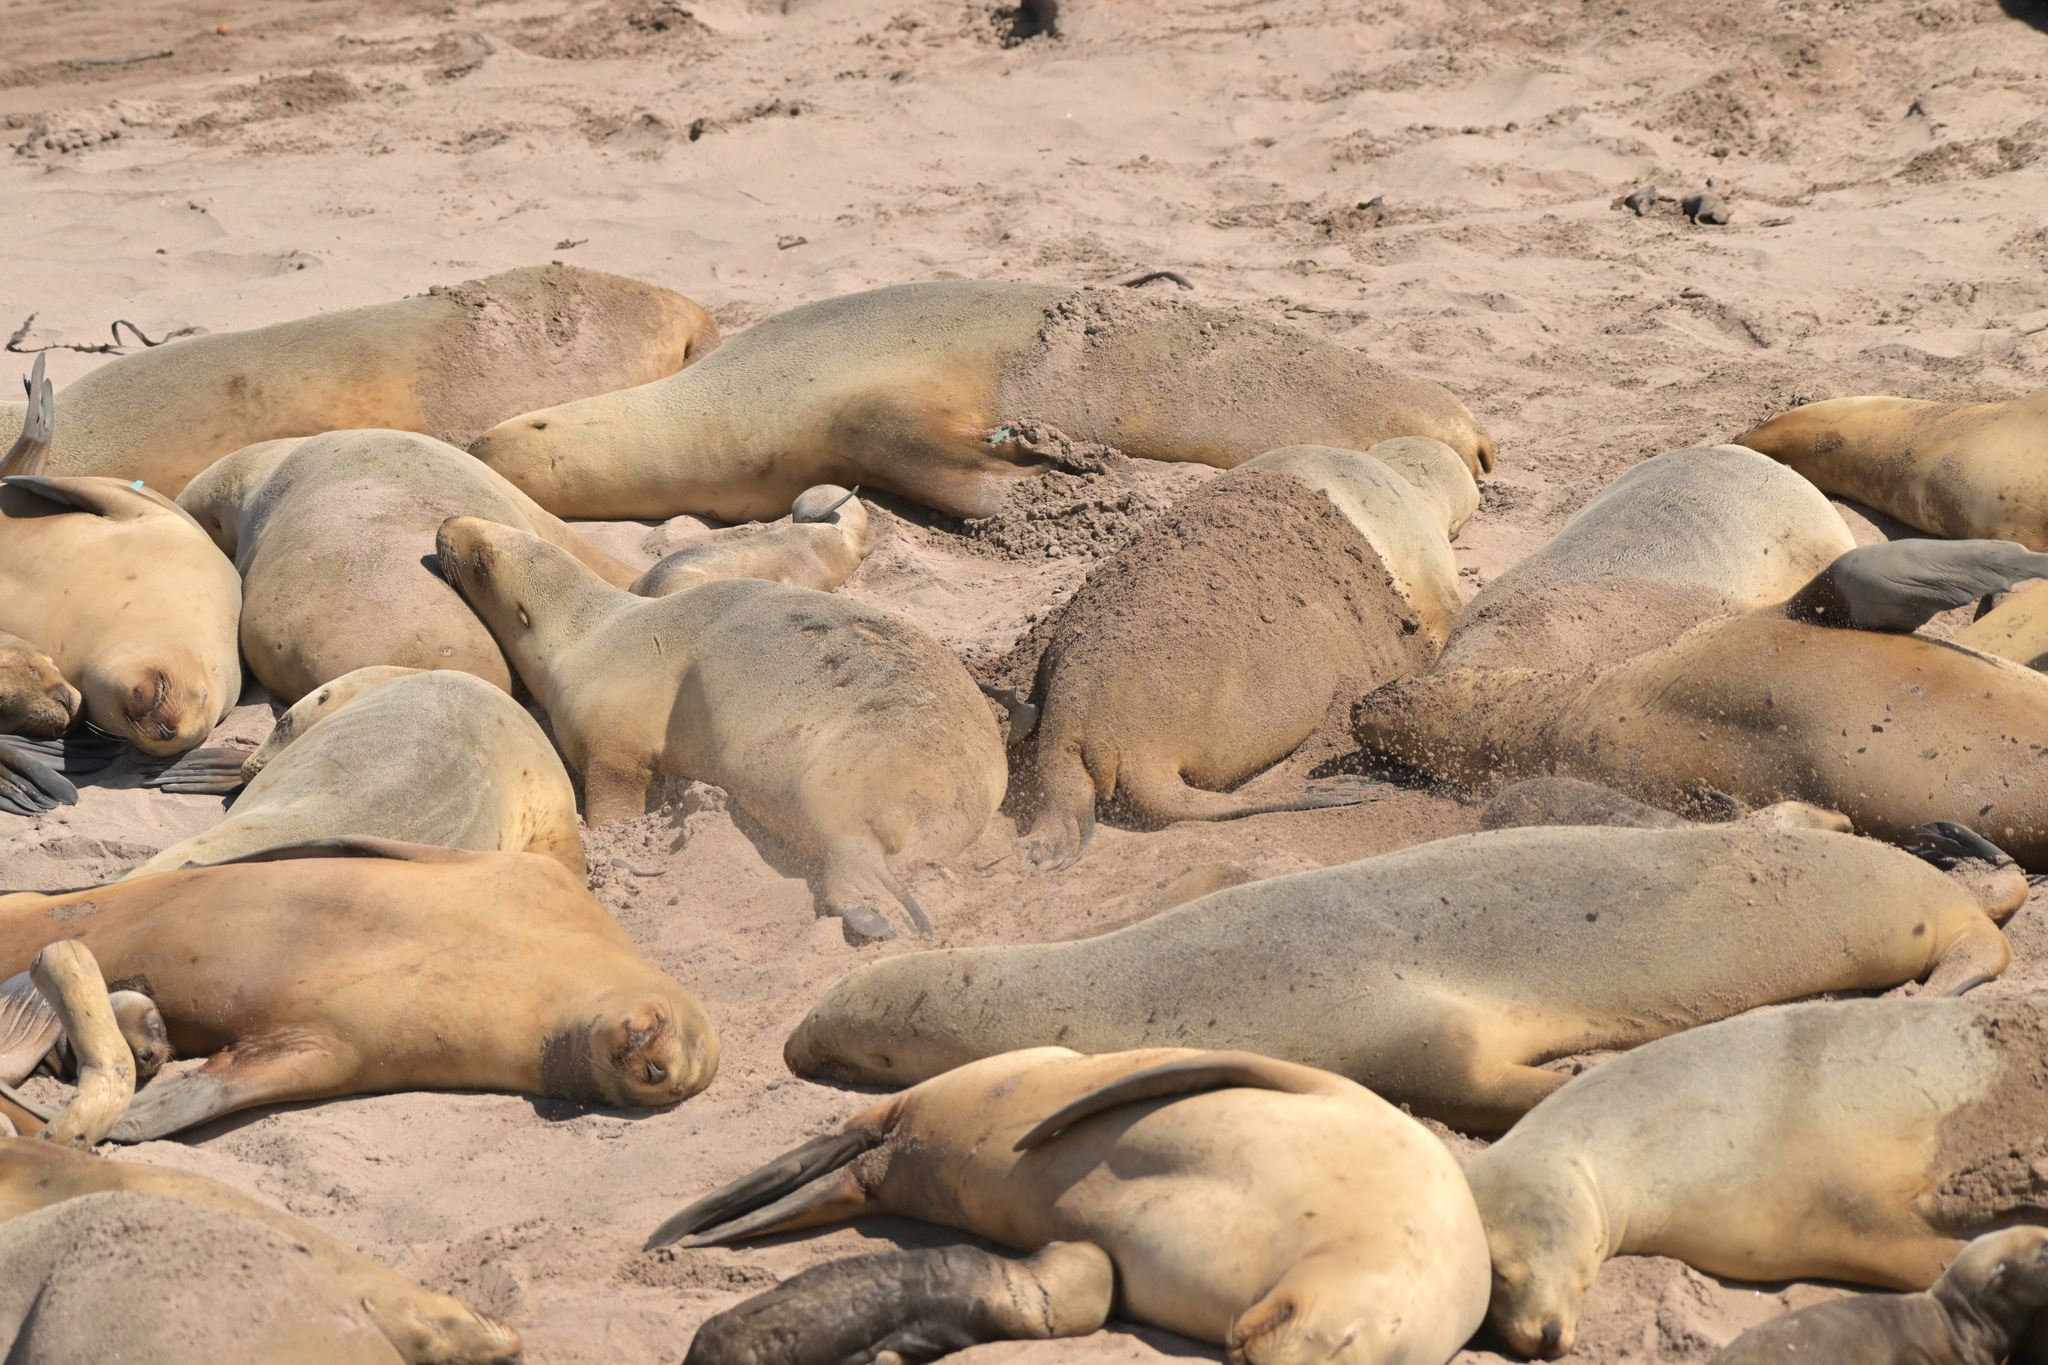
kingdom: Animalia
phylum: Chordata
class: Mammalia
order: Carnivora
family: Otariidae
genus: Phocarctos
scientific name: Phocarctos hookeri
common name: New zealand sea lion
